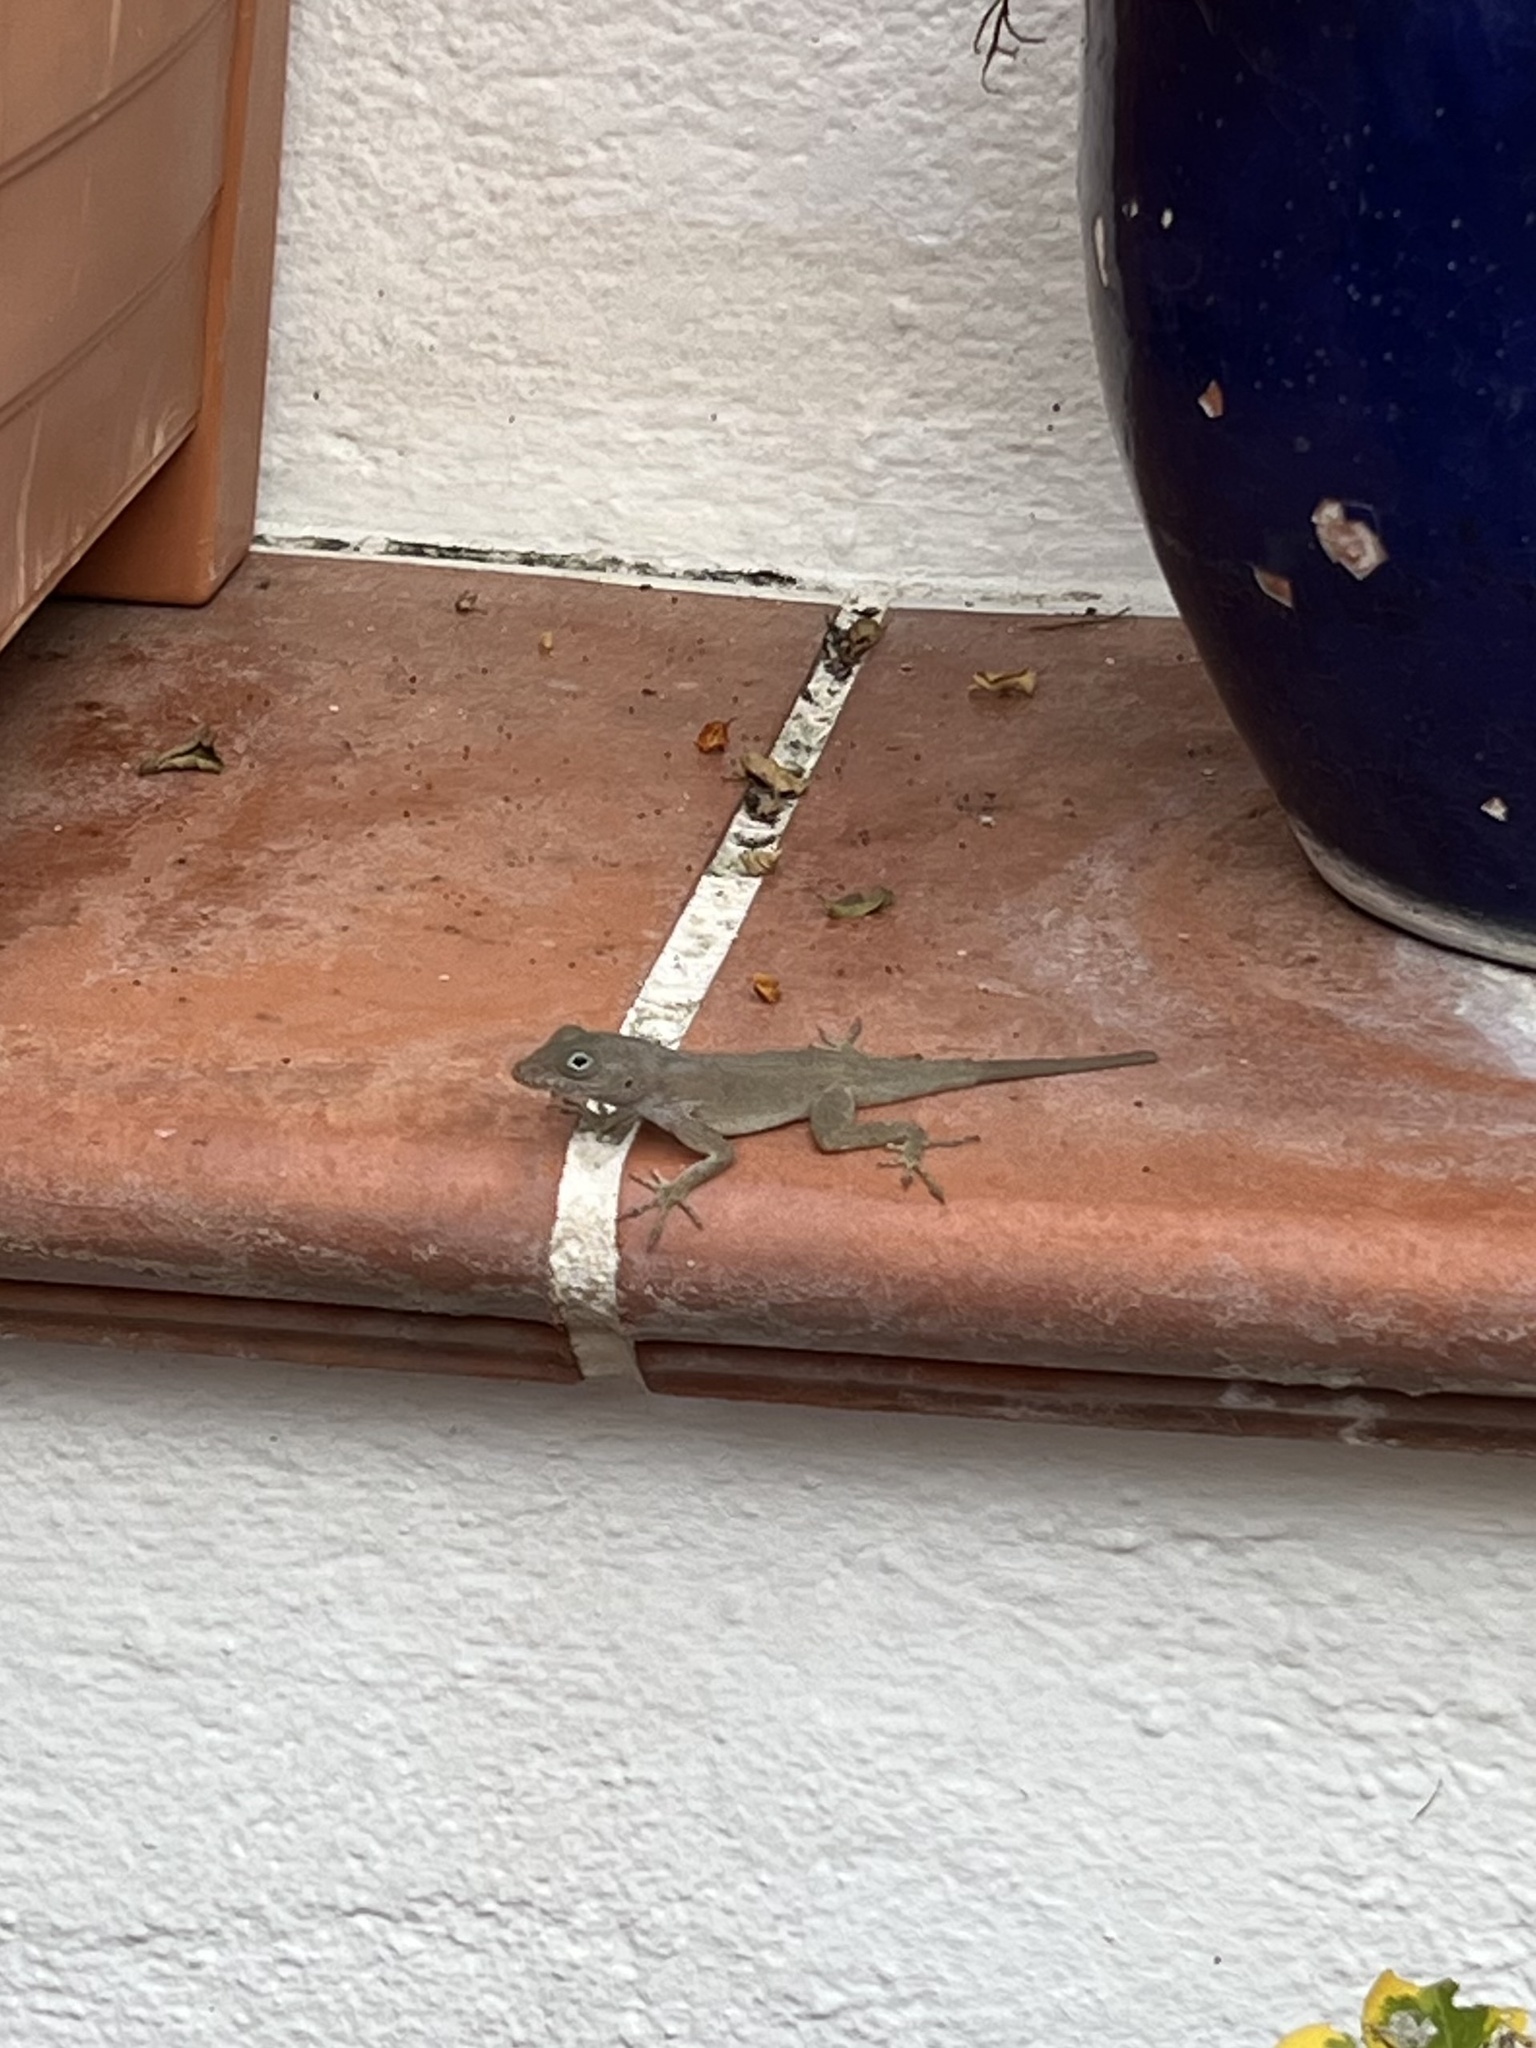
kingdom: Animalia
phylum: Chordata
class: Squamata
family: Dactyloidae
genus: Anolis
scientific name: Anolis cristatellus
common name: Crested anole
